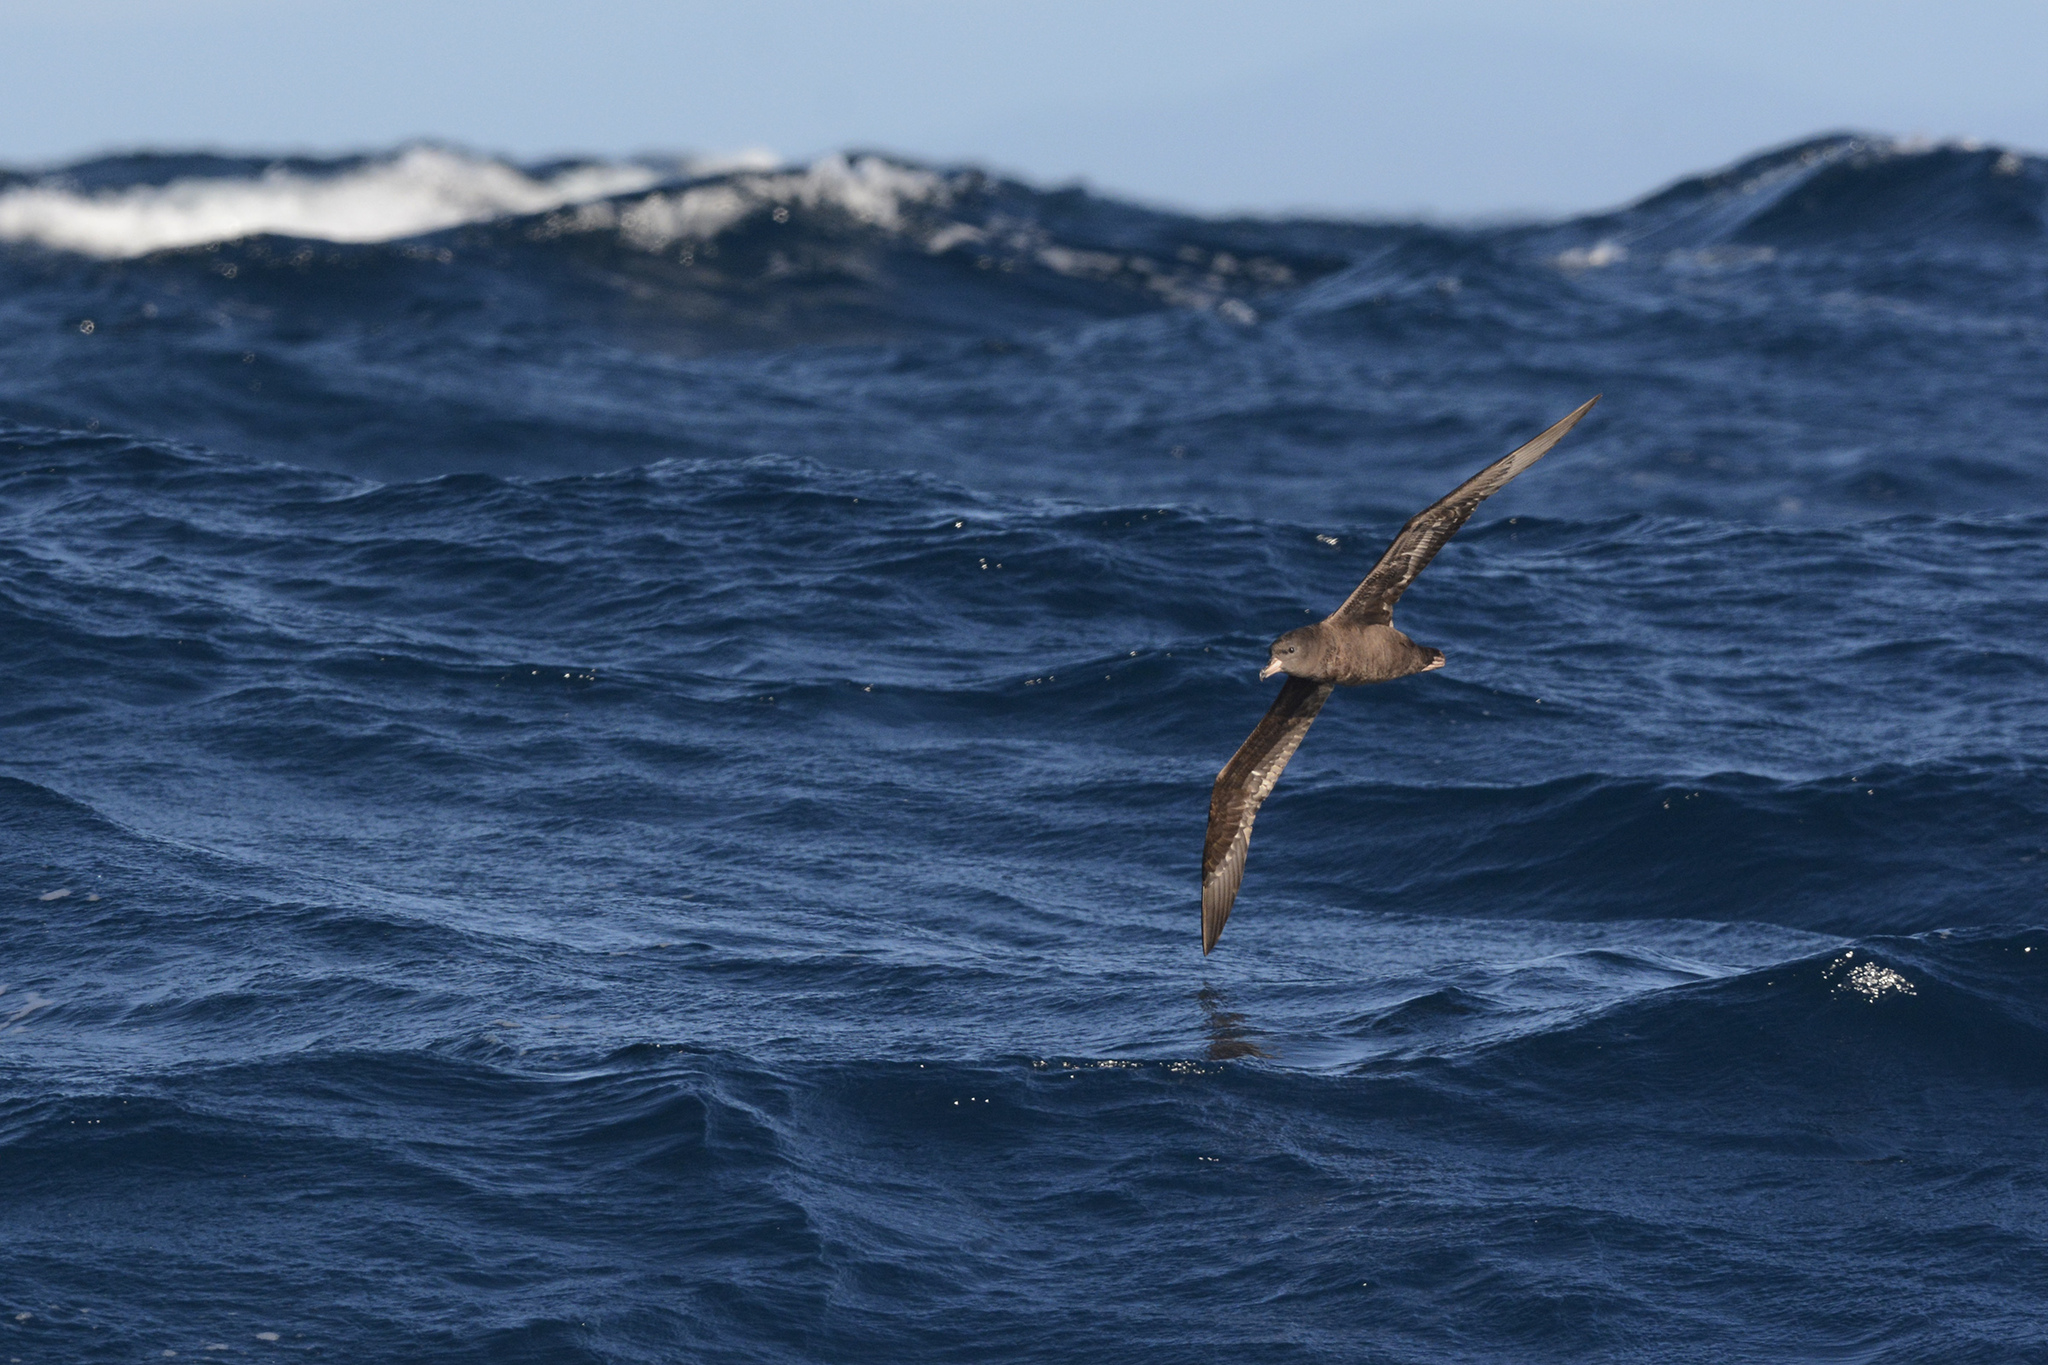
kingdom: Animalia
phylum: Chordata
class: Aves
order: Procellariiformes
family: Procellariidae
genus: Puffinus
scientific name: Puffinus carneipes
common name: Flesh-footed shearwater
